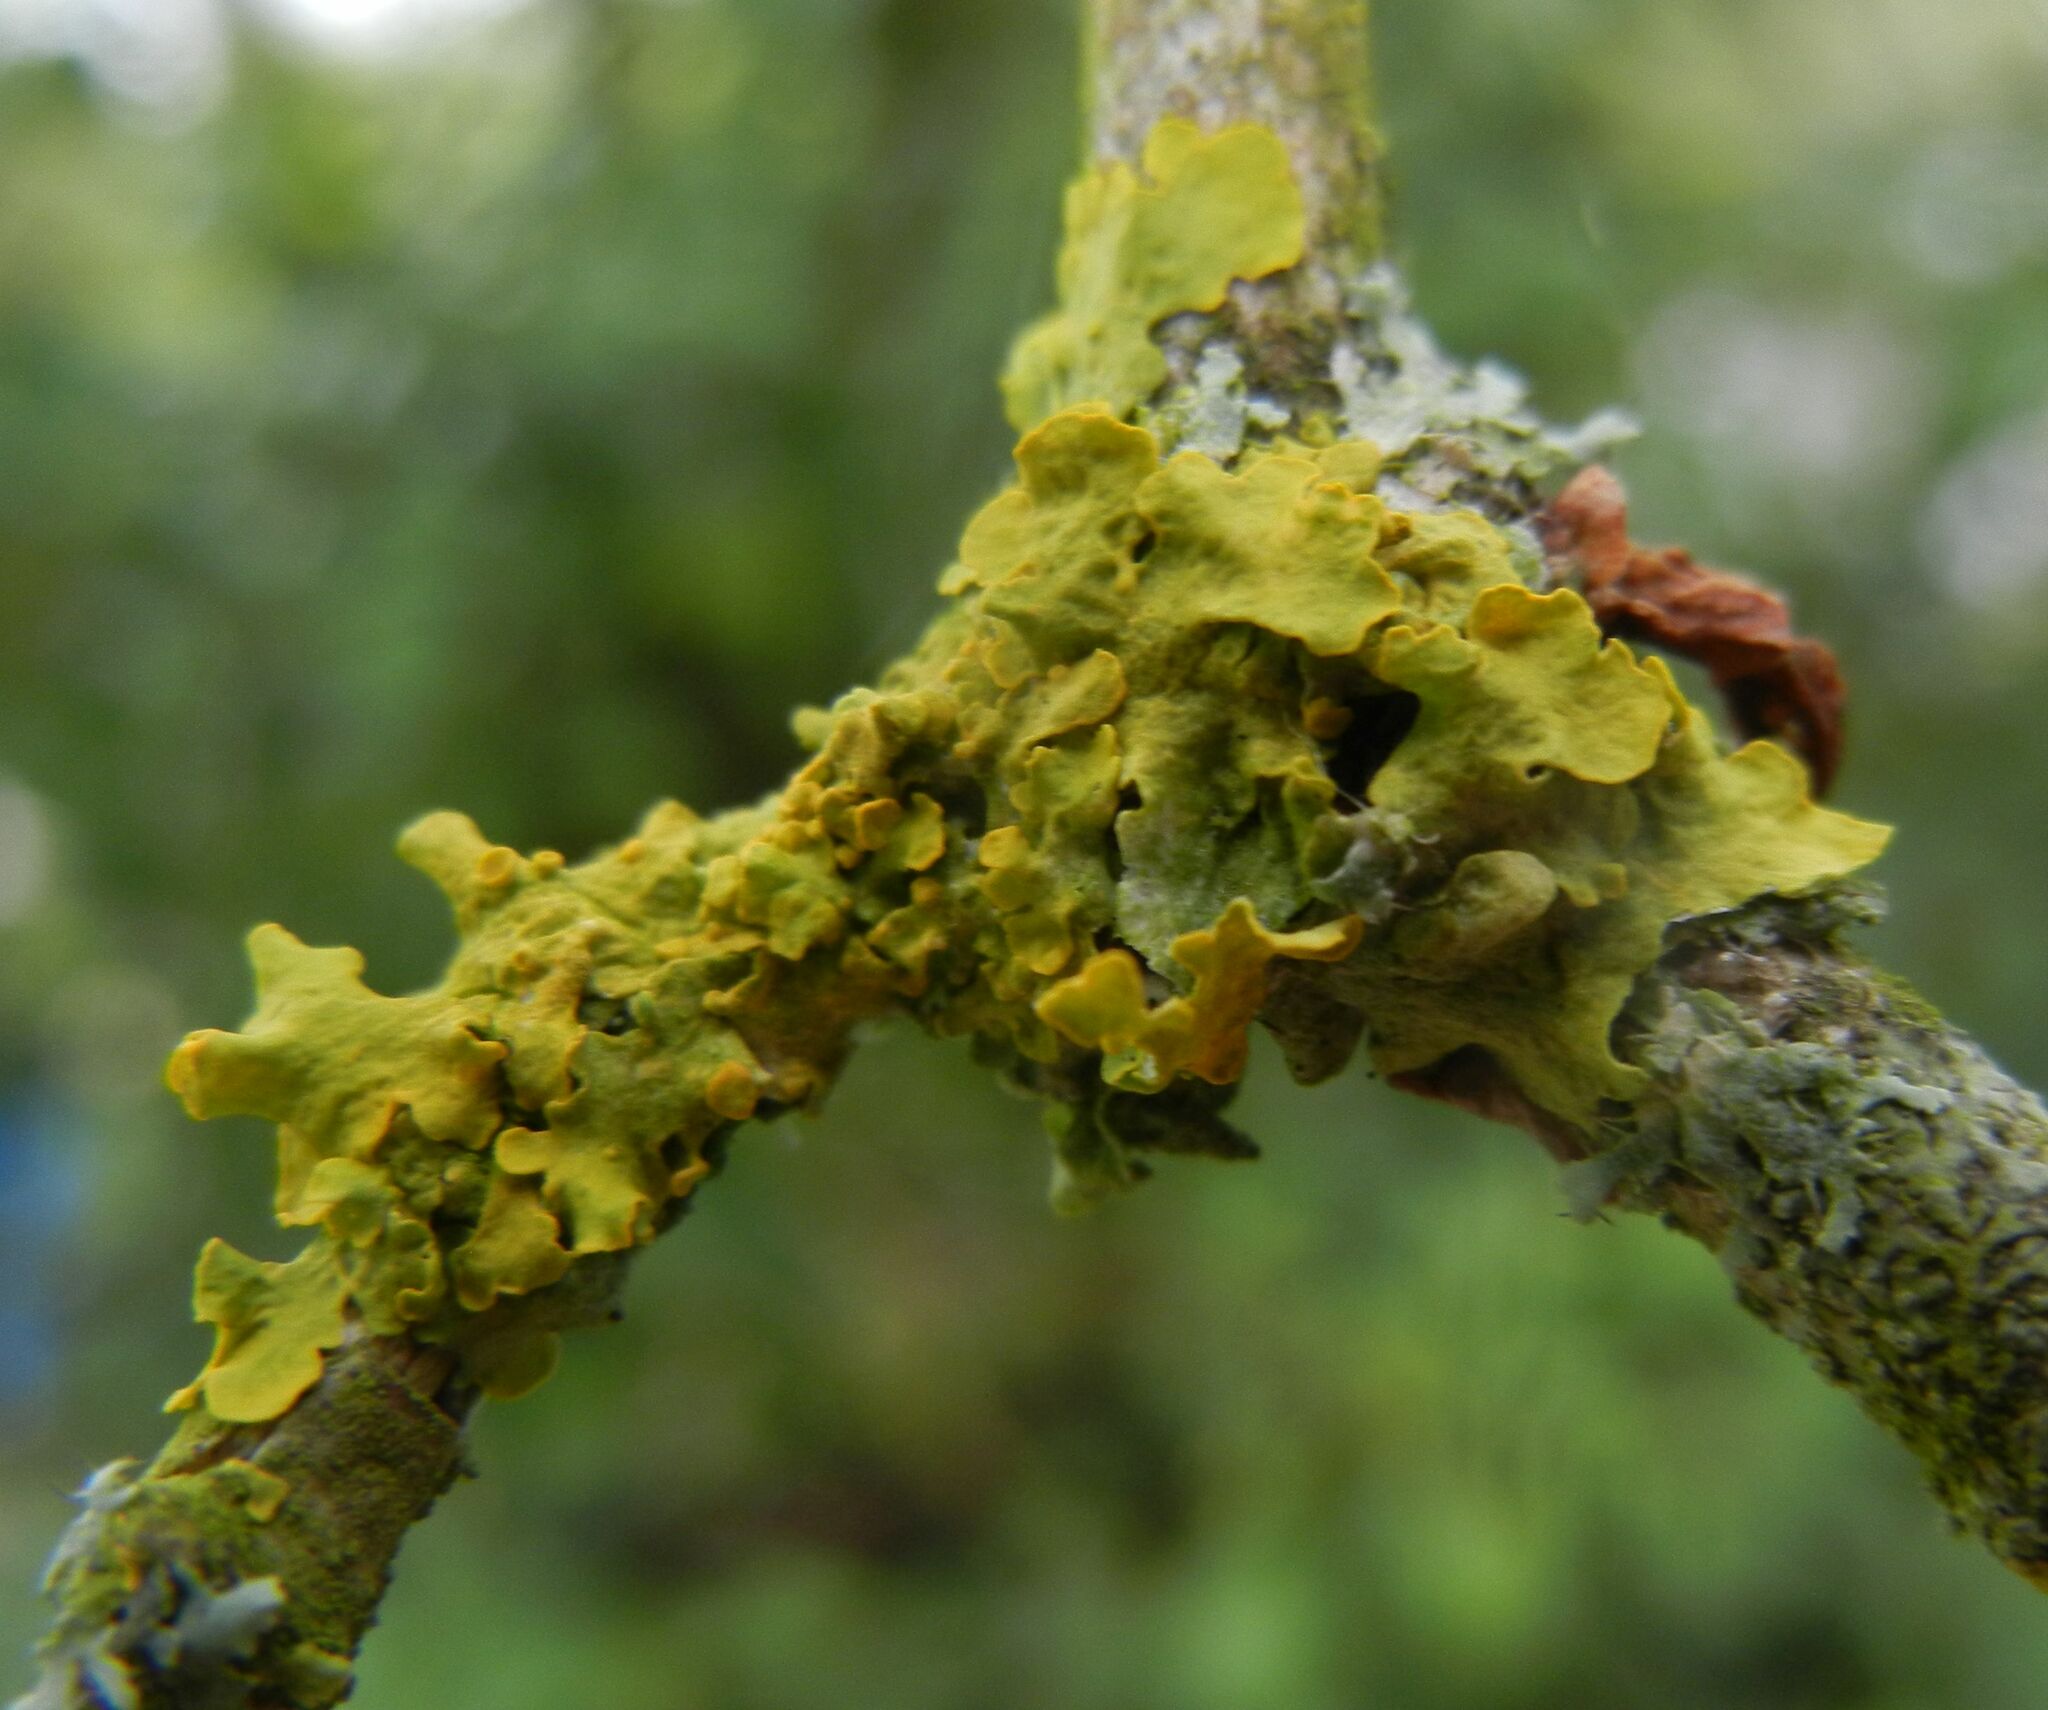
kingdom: Fungi
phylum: Ascomycota
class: Lecanoromycetes
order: Teloschistales
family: Teloschistaceae
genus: Xanthoria
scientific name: Xanthoria parietina
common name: Common orange lichen
